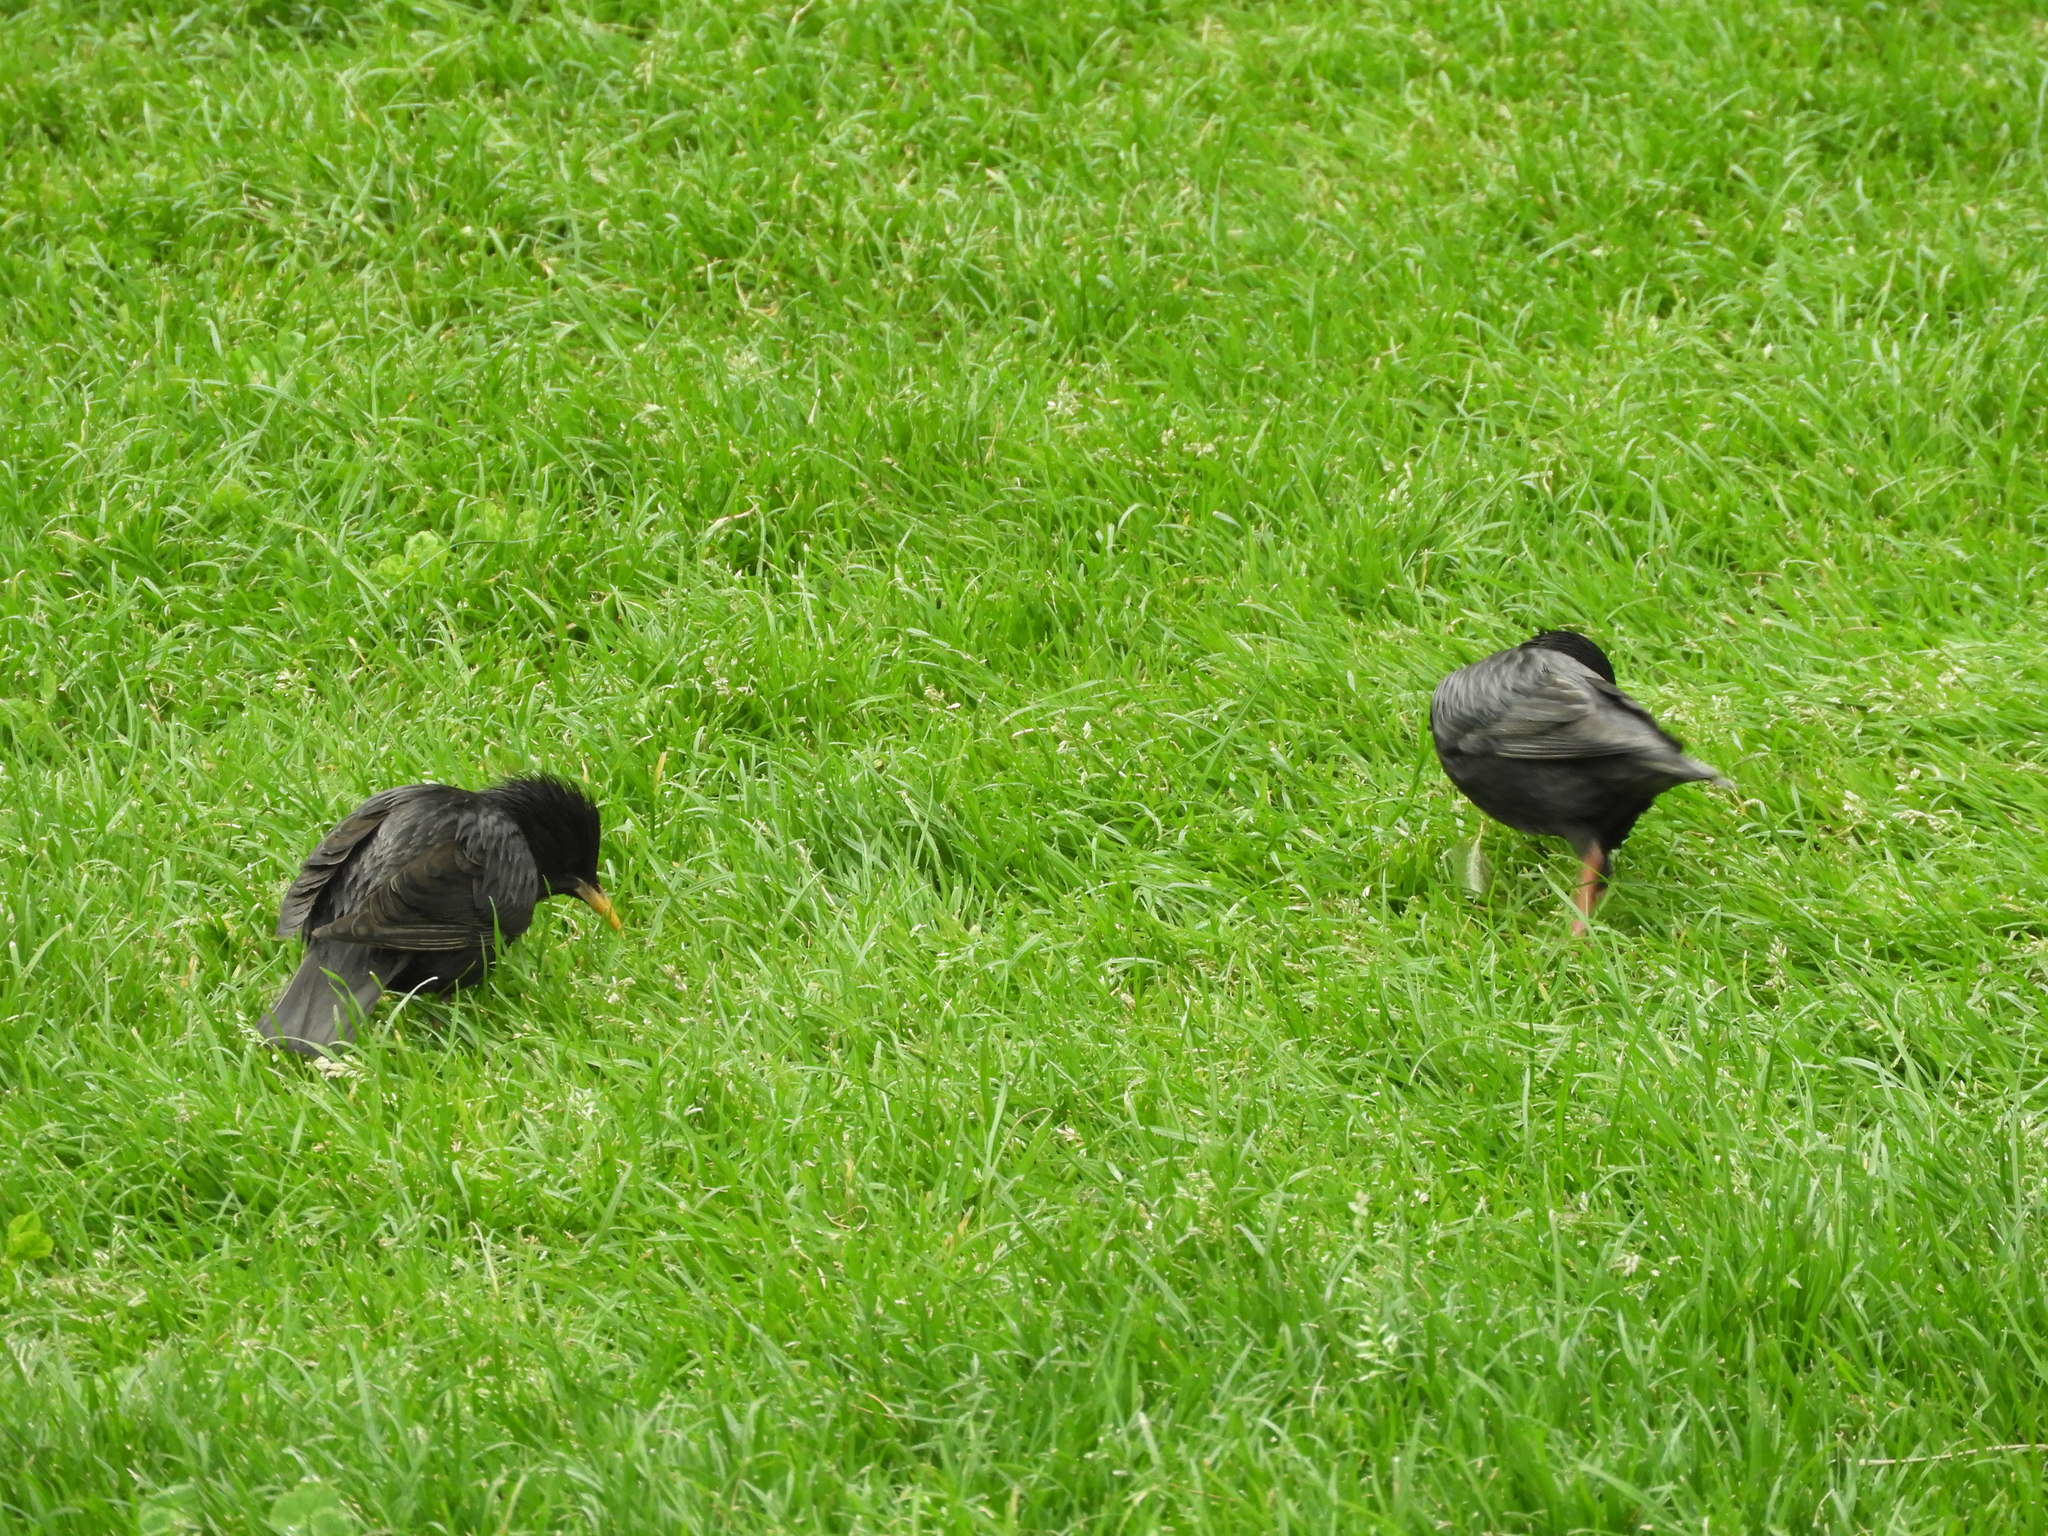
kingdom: Animalia
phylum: Chordata
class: Aves
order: Passeriformes
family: Sturnidae
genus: Sturnus
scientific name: Sturnus unicolor
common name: Spotless starling
